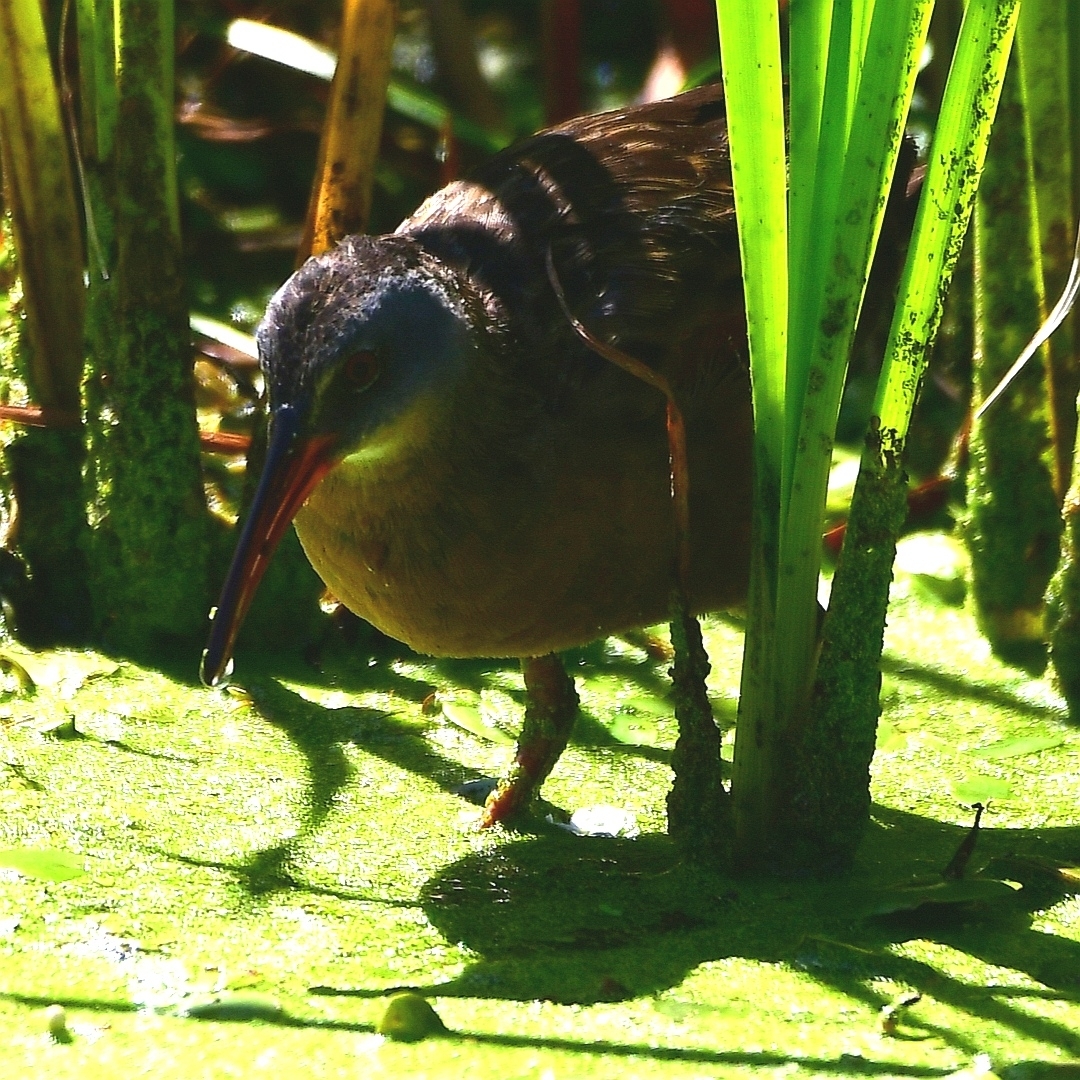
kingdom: Animalia
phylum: Chordata
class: Aves
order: Gruiformes
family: Rallidae
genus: Rallus
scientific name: Rallus limicola
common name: Virginia rail
